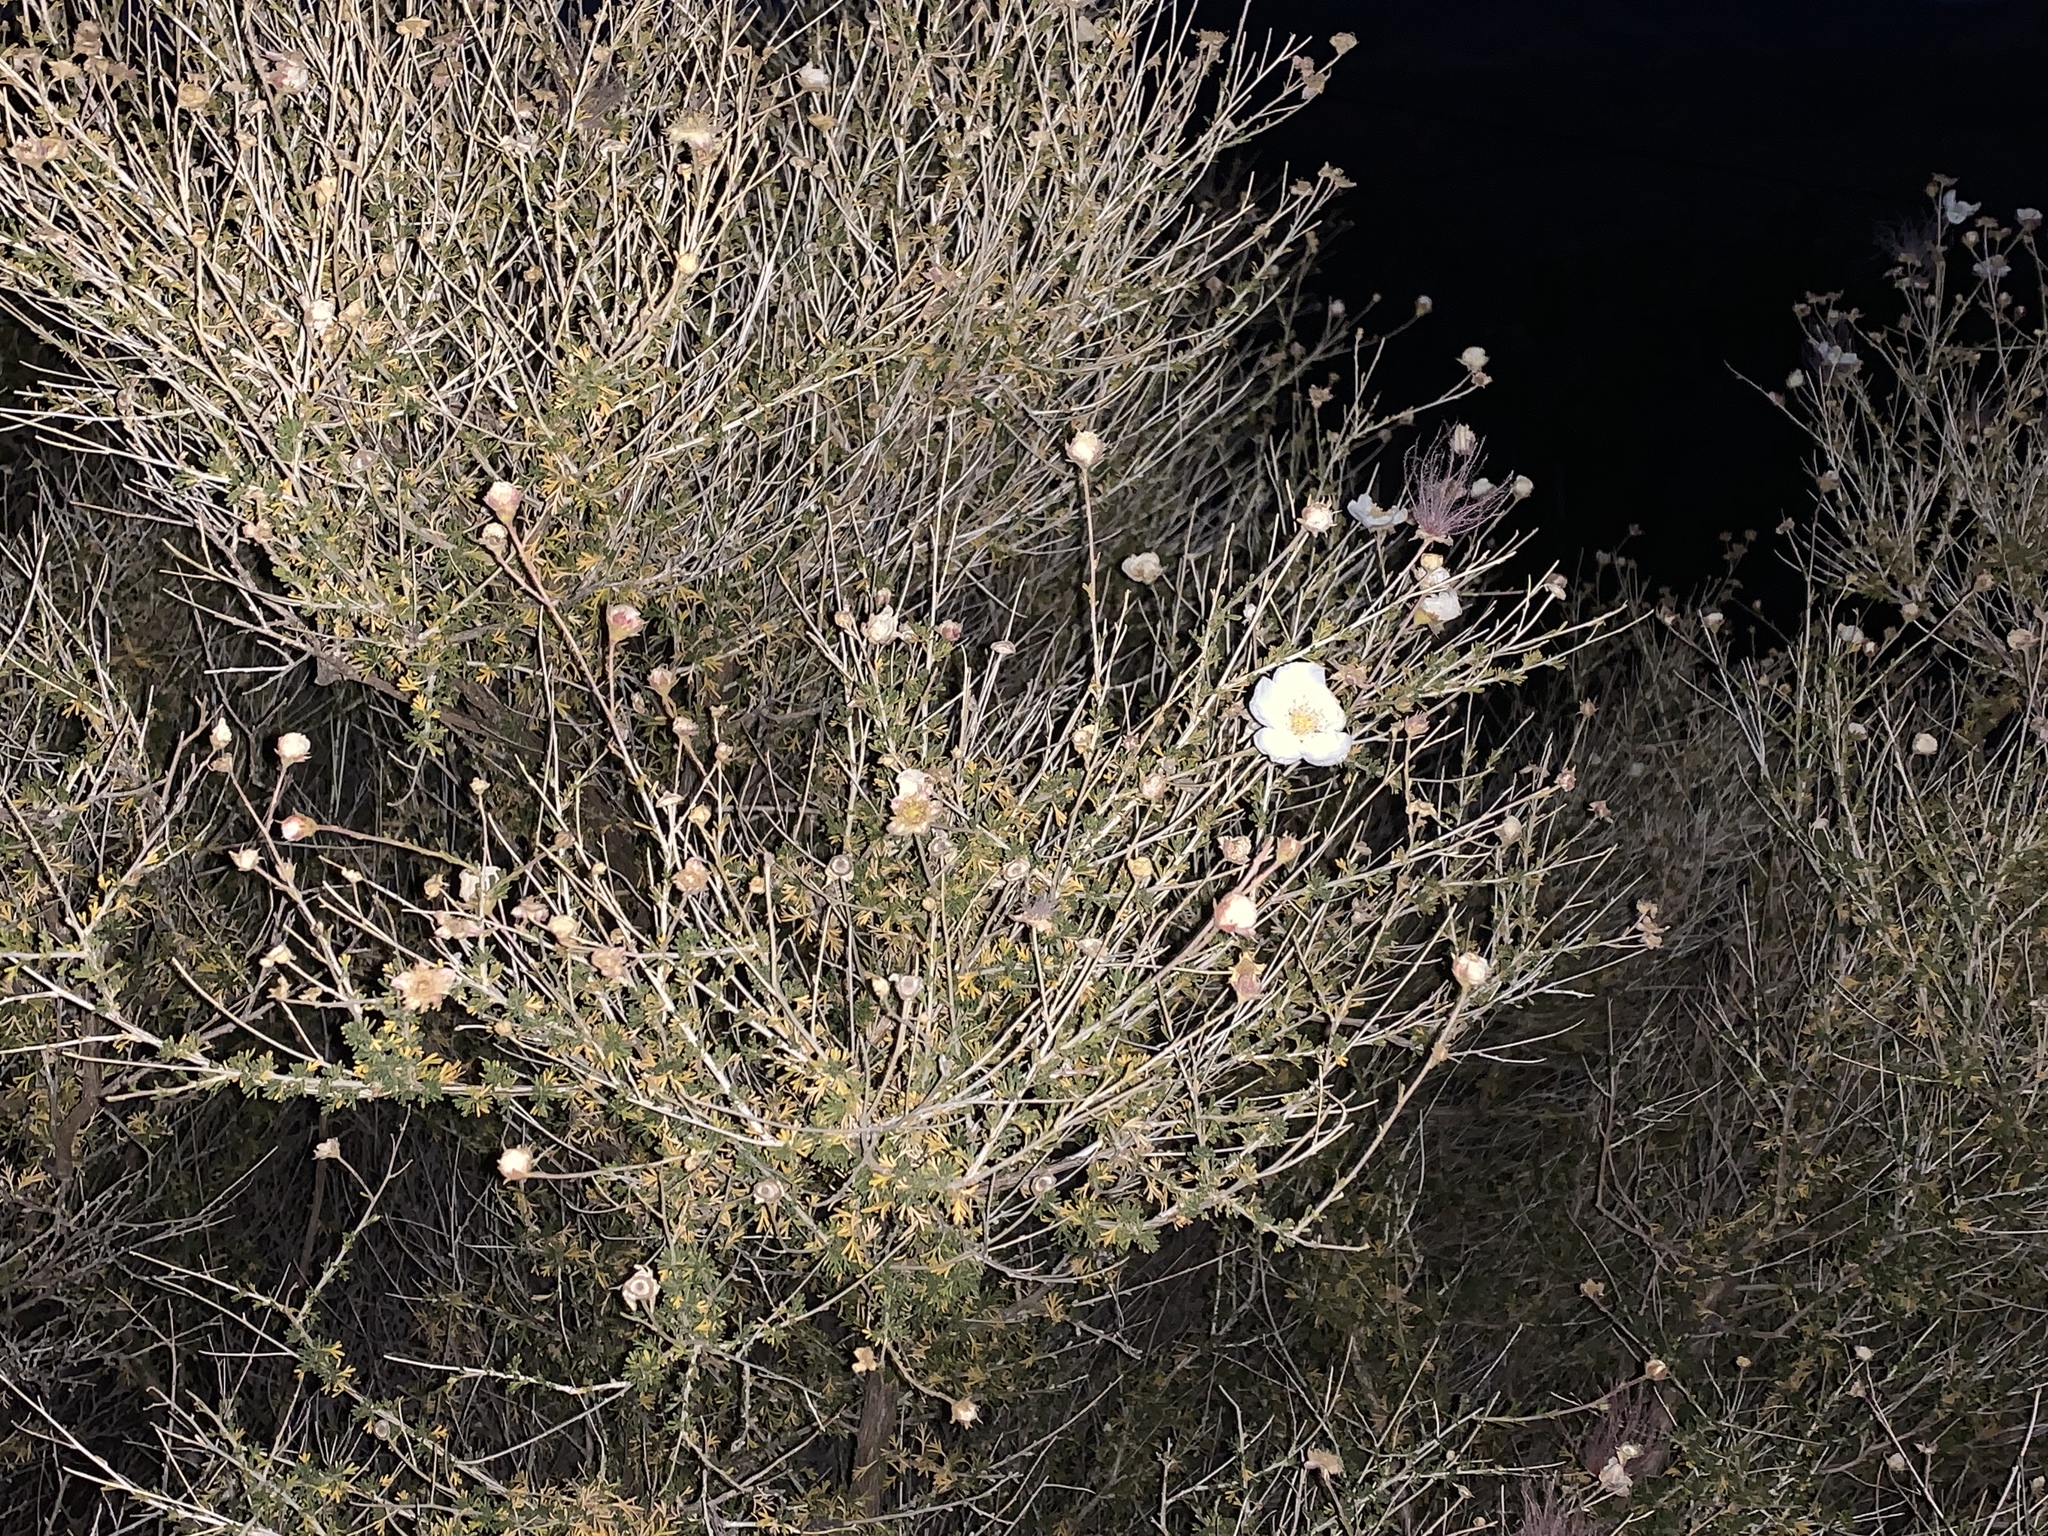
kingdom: Plantae
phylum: Tracheophyta
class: Magnoliopsida
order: Rosales
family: Rosaceae
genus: Fallugia
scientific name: Fallugia paradoxa
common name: Apache-plume
